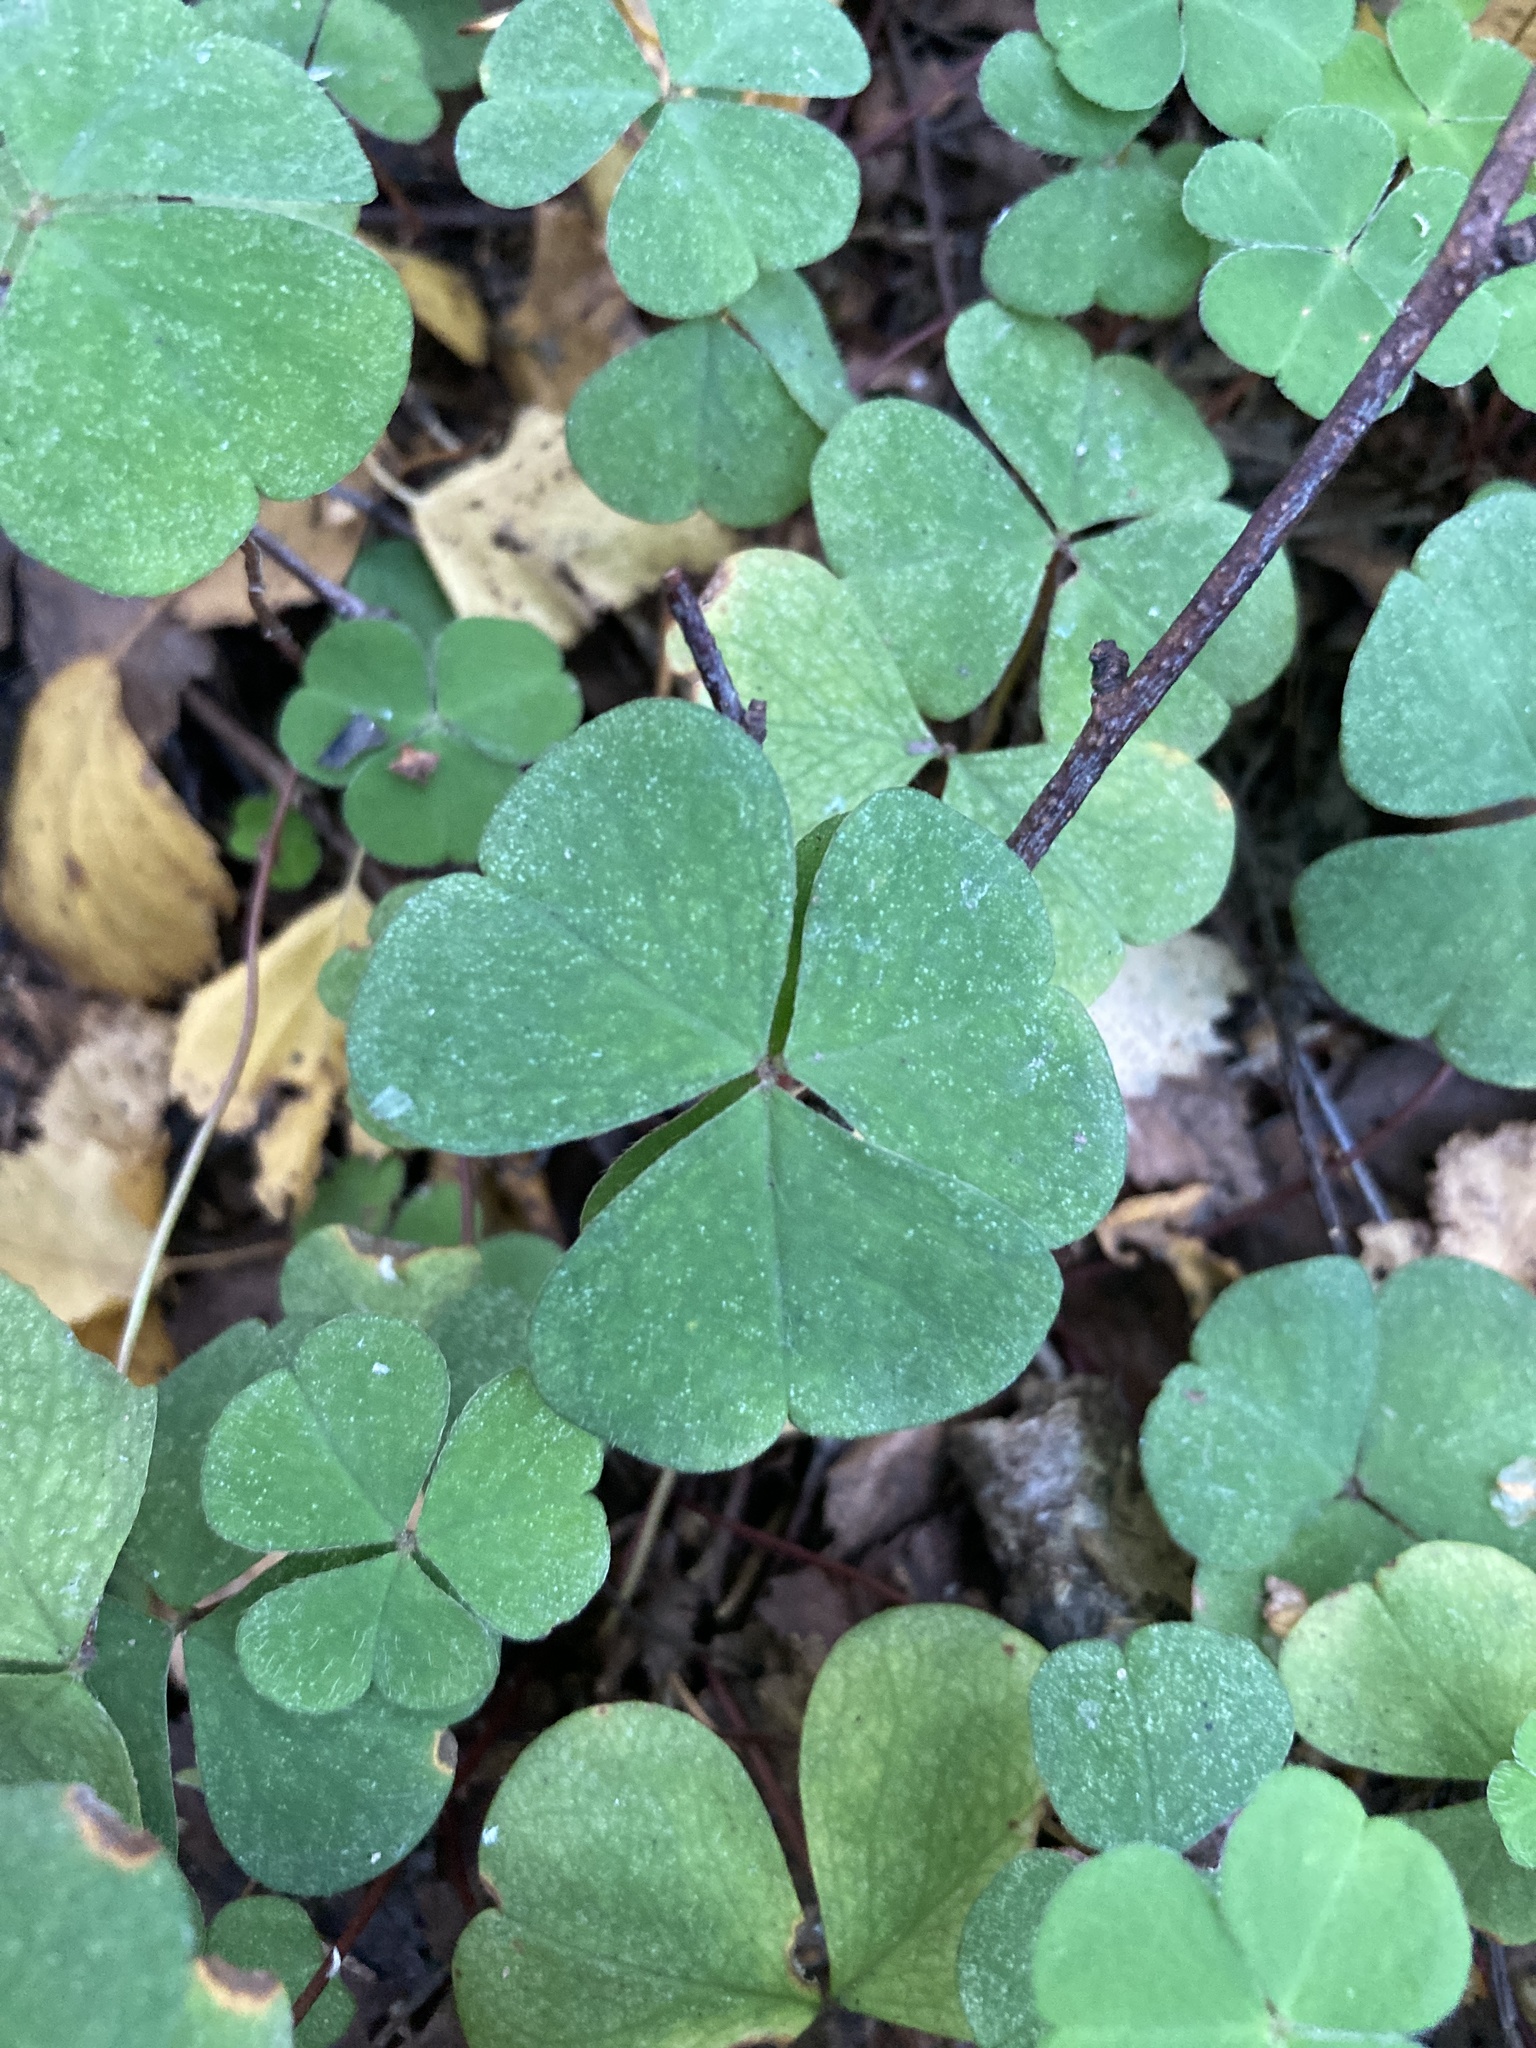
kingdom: Plantae
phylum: Tracheophyta
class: Magnoliopsida
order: Oxalidales
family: Oxalidaceae
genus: Oxalis
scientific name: Oxalis acetosella
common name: Wood-sorrel
